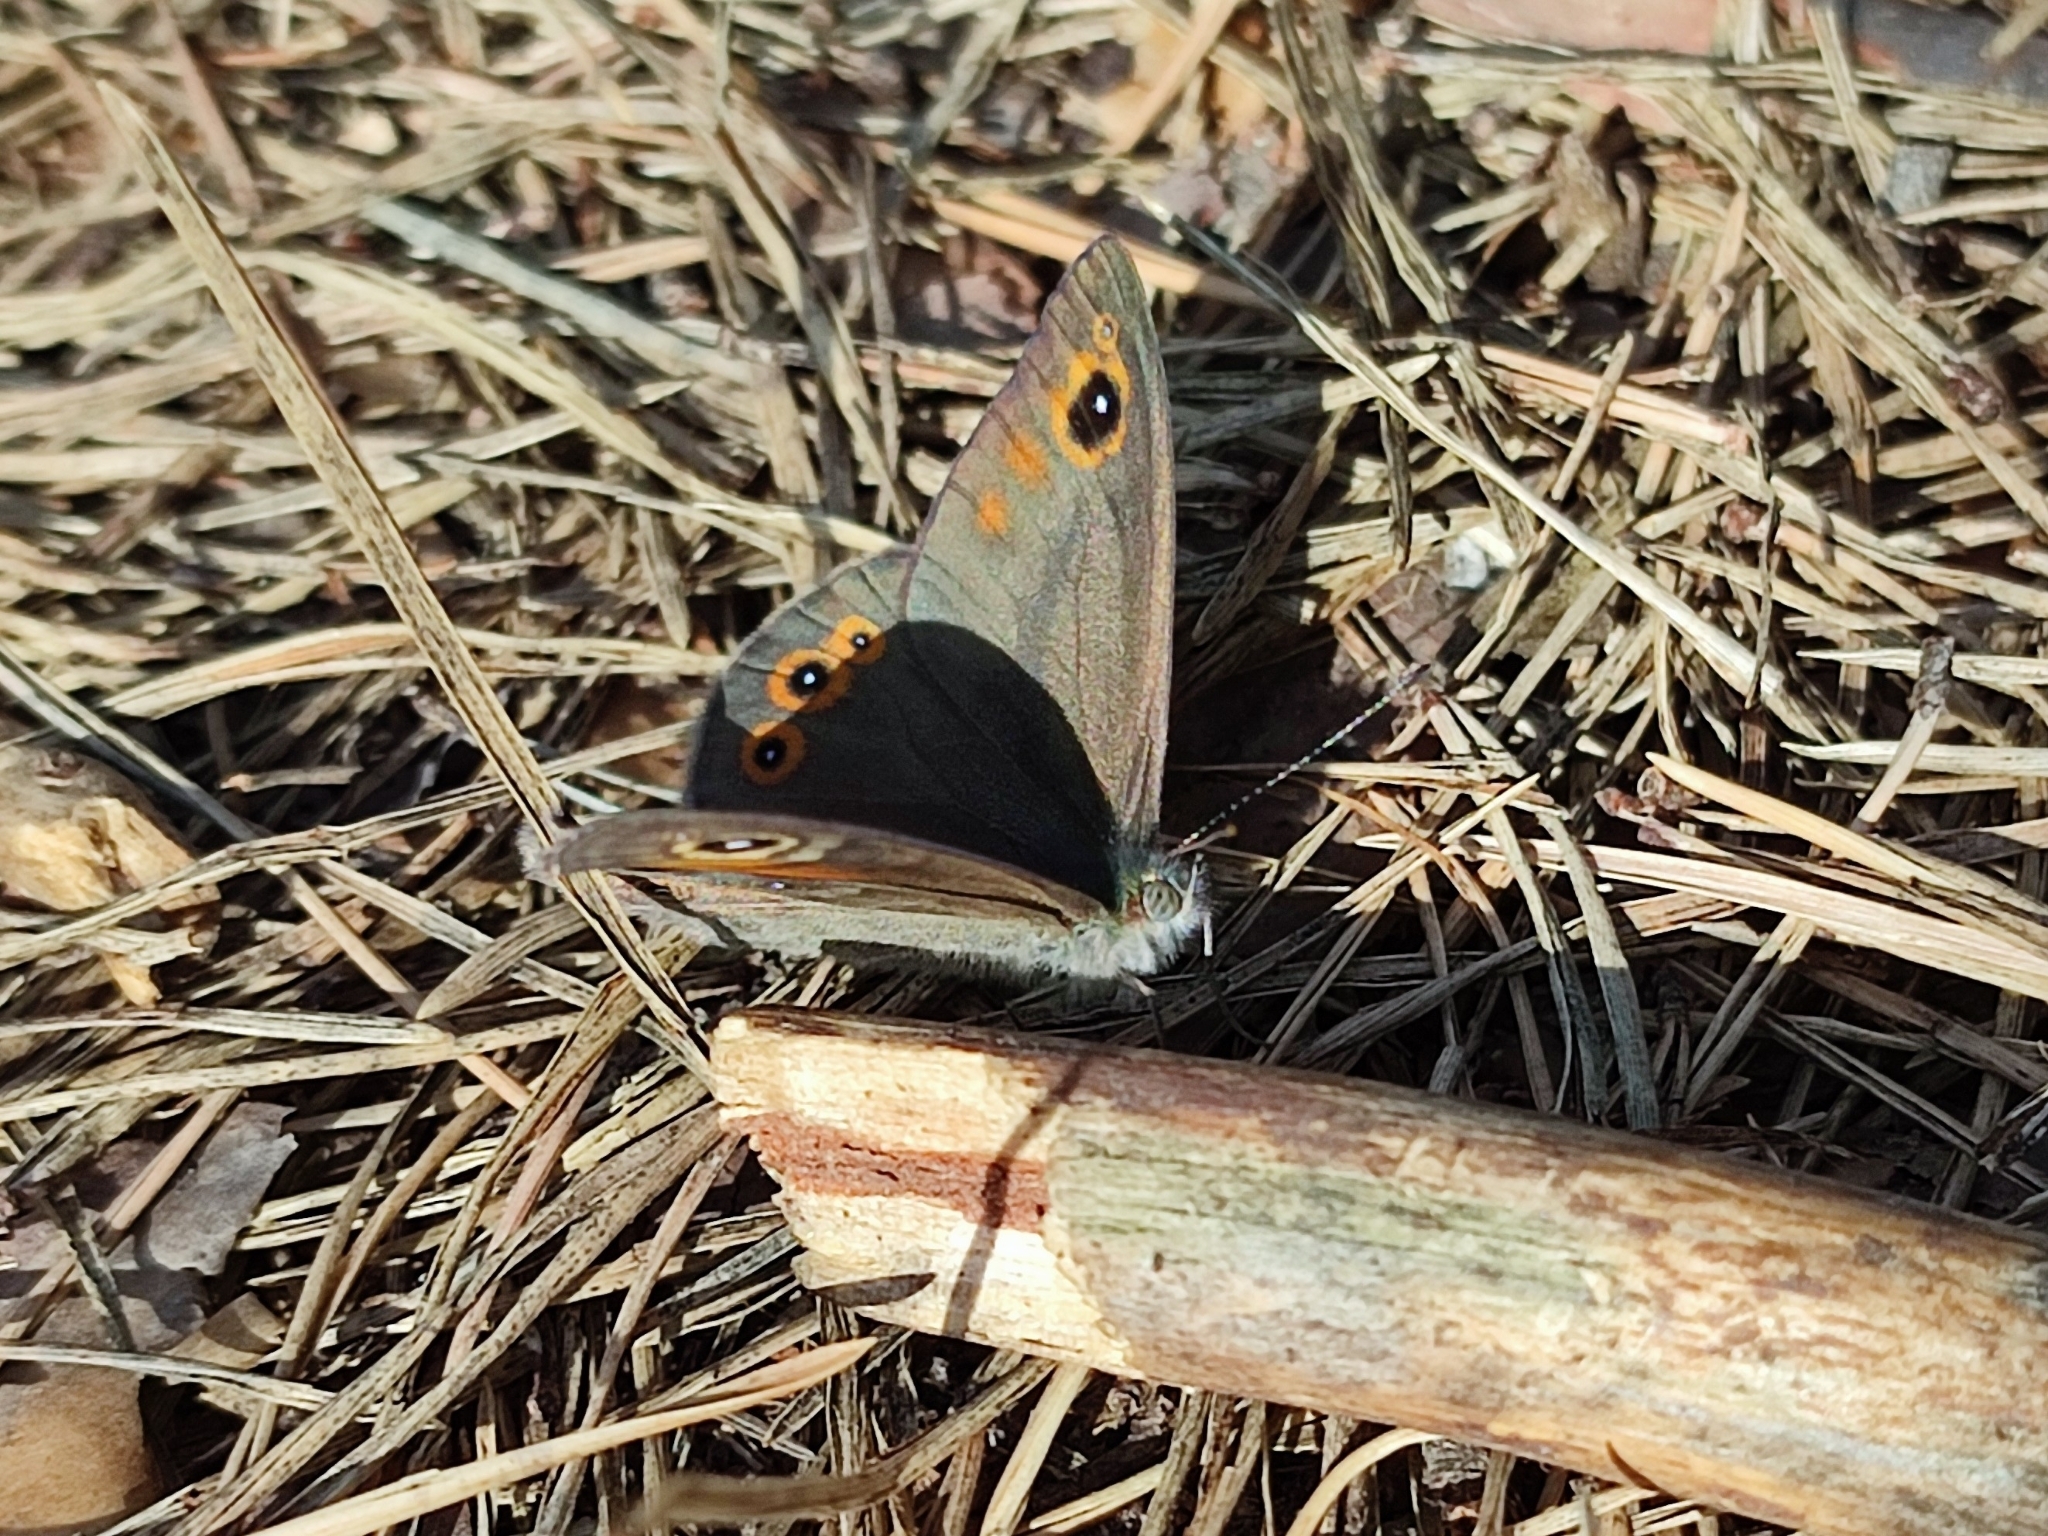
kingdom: Animalia
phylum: Arthropoda
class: Insecta
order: Lepidoptera
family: Nymphalidae
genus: Pararge
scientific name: Pararge Lasiommata maera
